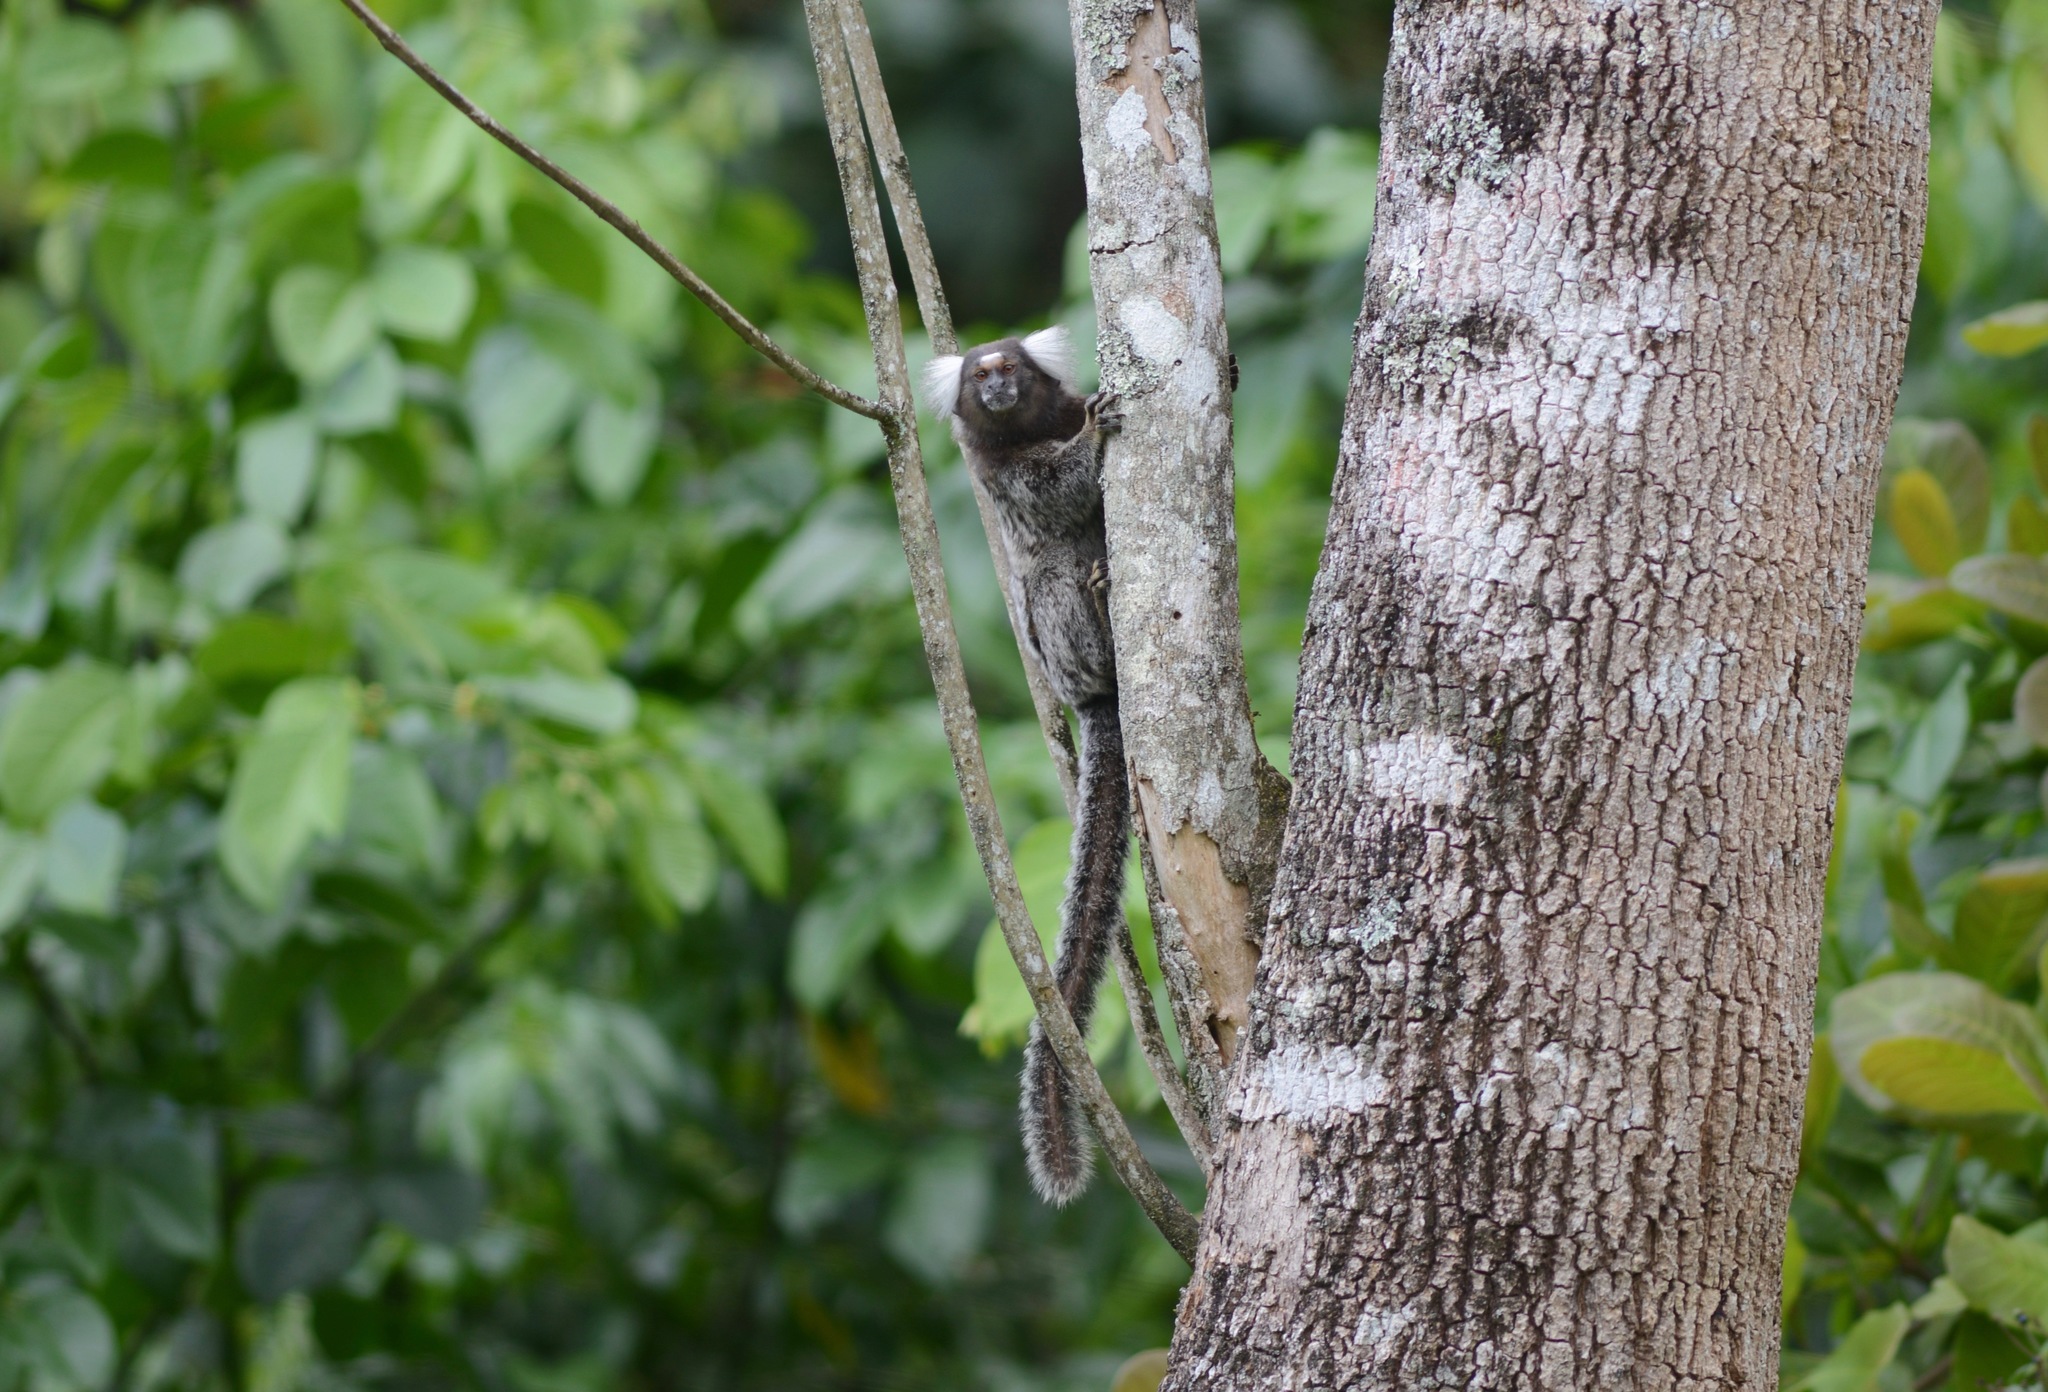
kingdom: Animalia
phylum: Chordata
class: Mammalia
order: Primates
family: Callitrichidae
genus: Callithrix
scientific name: Callithrix jacchus
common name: Common marmoset
